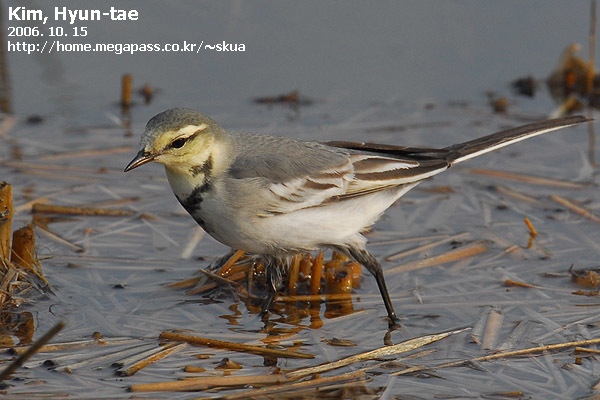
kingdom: Animalia
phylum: Chordata
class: Aves
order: Passeriformes
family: Motacillidae
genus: Motacilla
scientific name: Motacilla alba
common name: White wagtail
